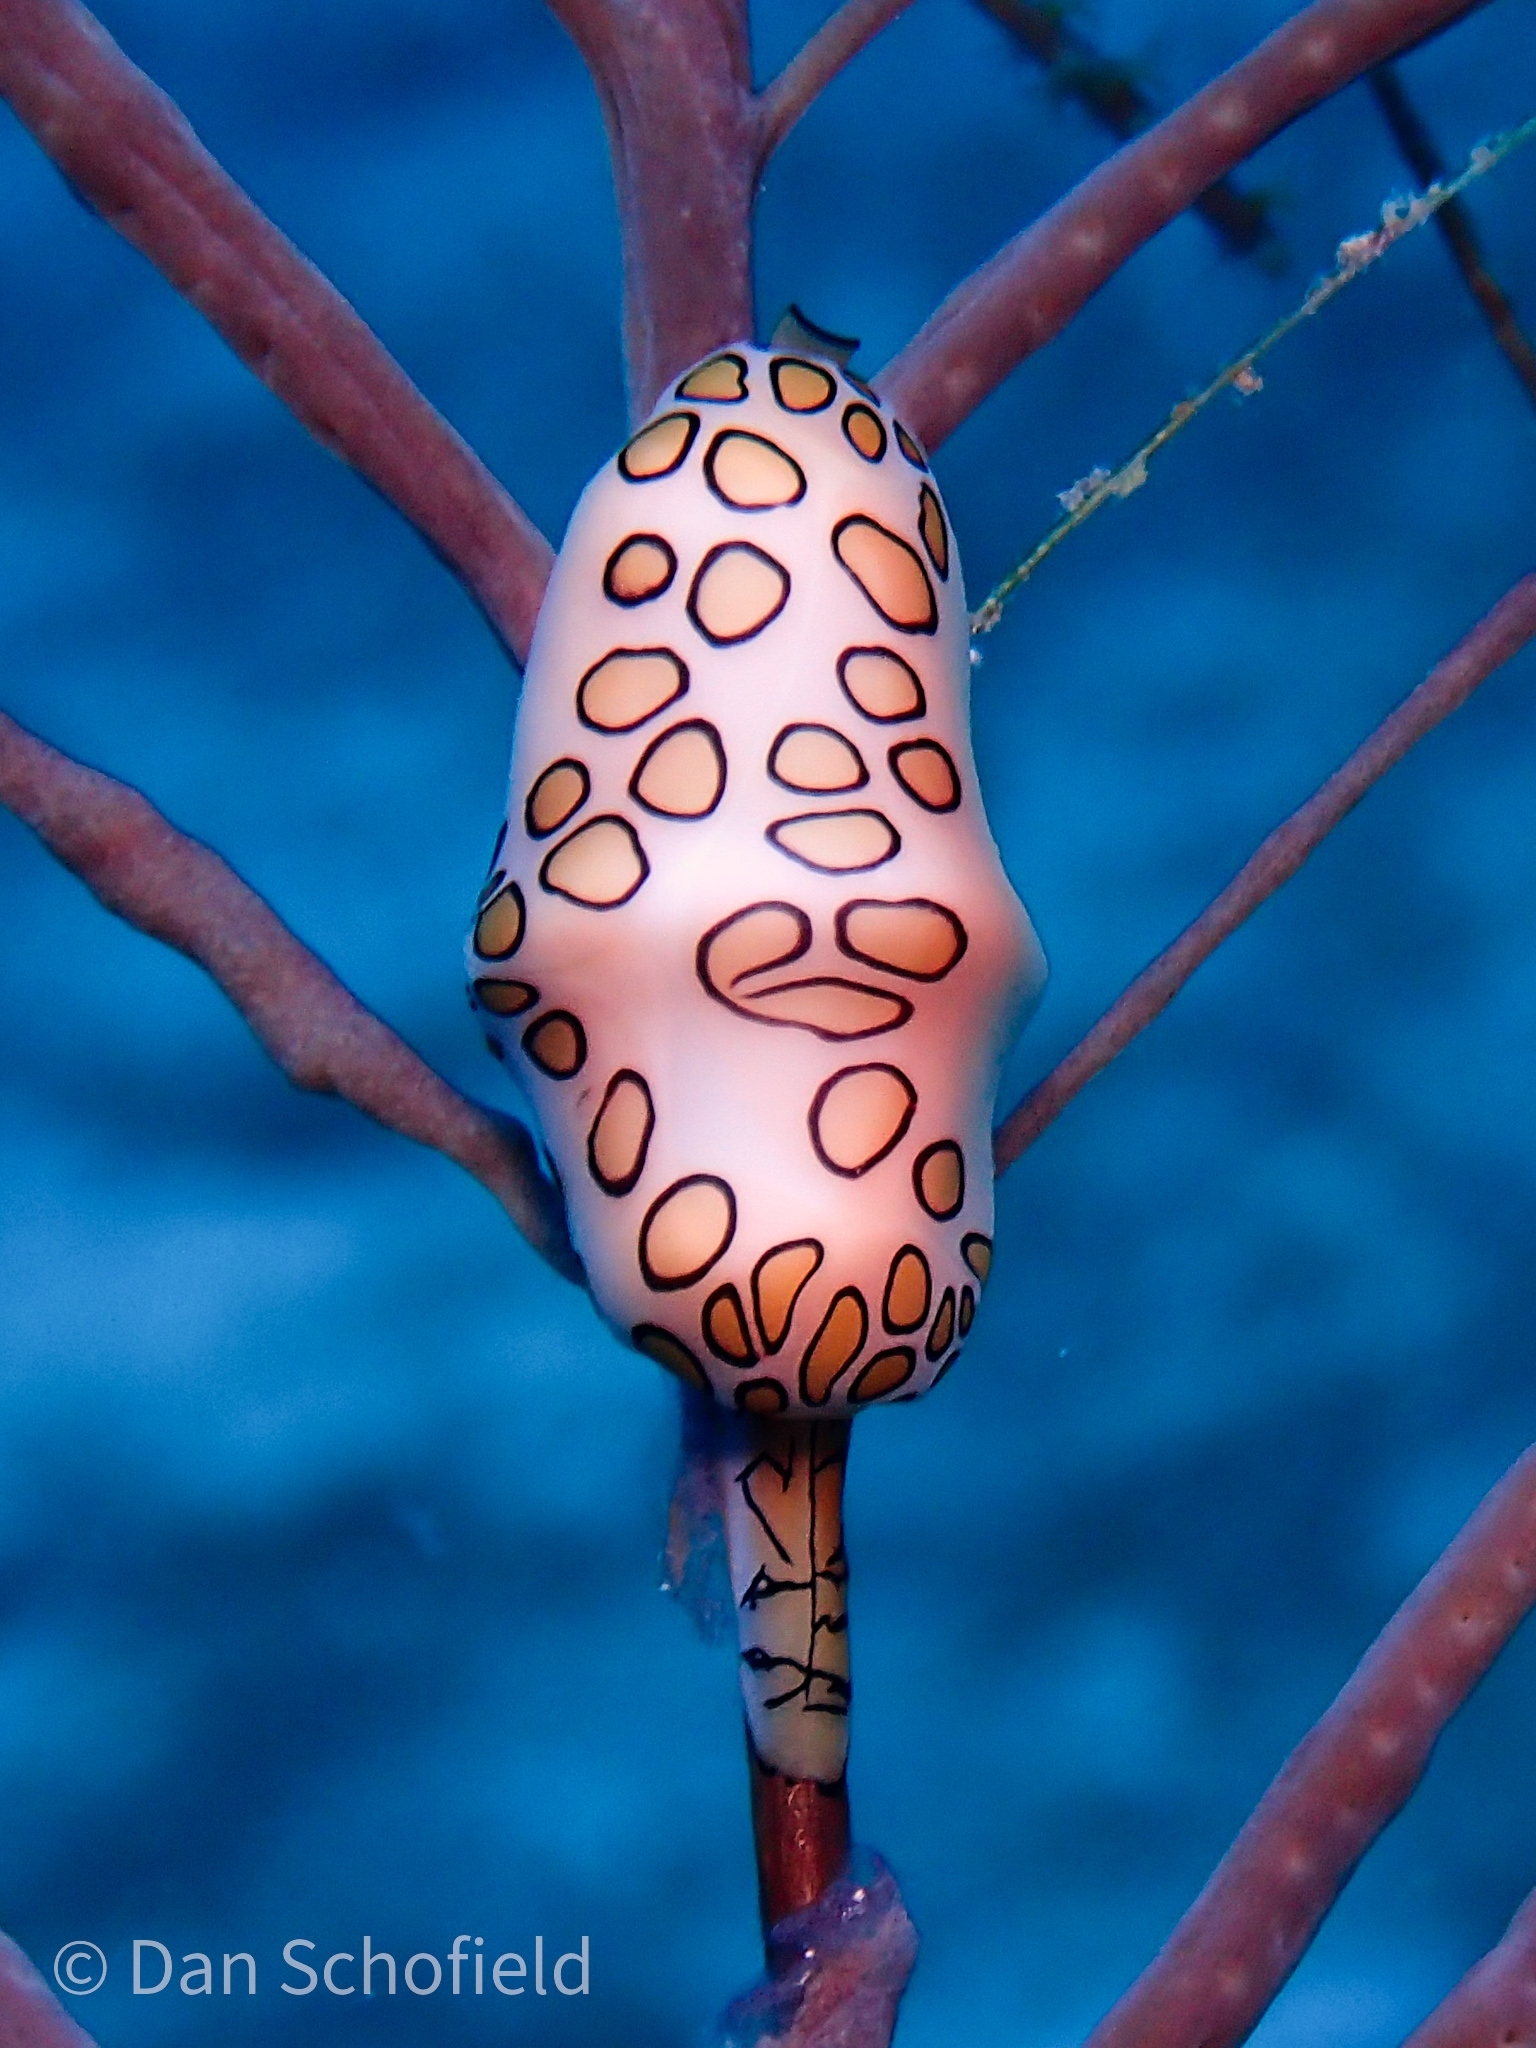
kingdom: Animalia
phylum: Mollusca
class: Gastropoda
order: Littorinimorpha
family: Ovulidae
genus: Cyphoma
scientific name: Cyphoma gibbosum
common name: Flamingo tongue
